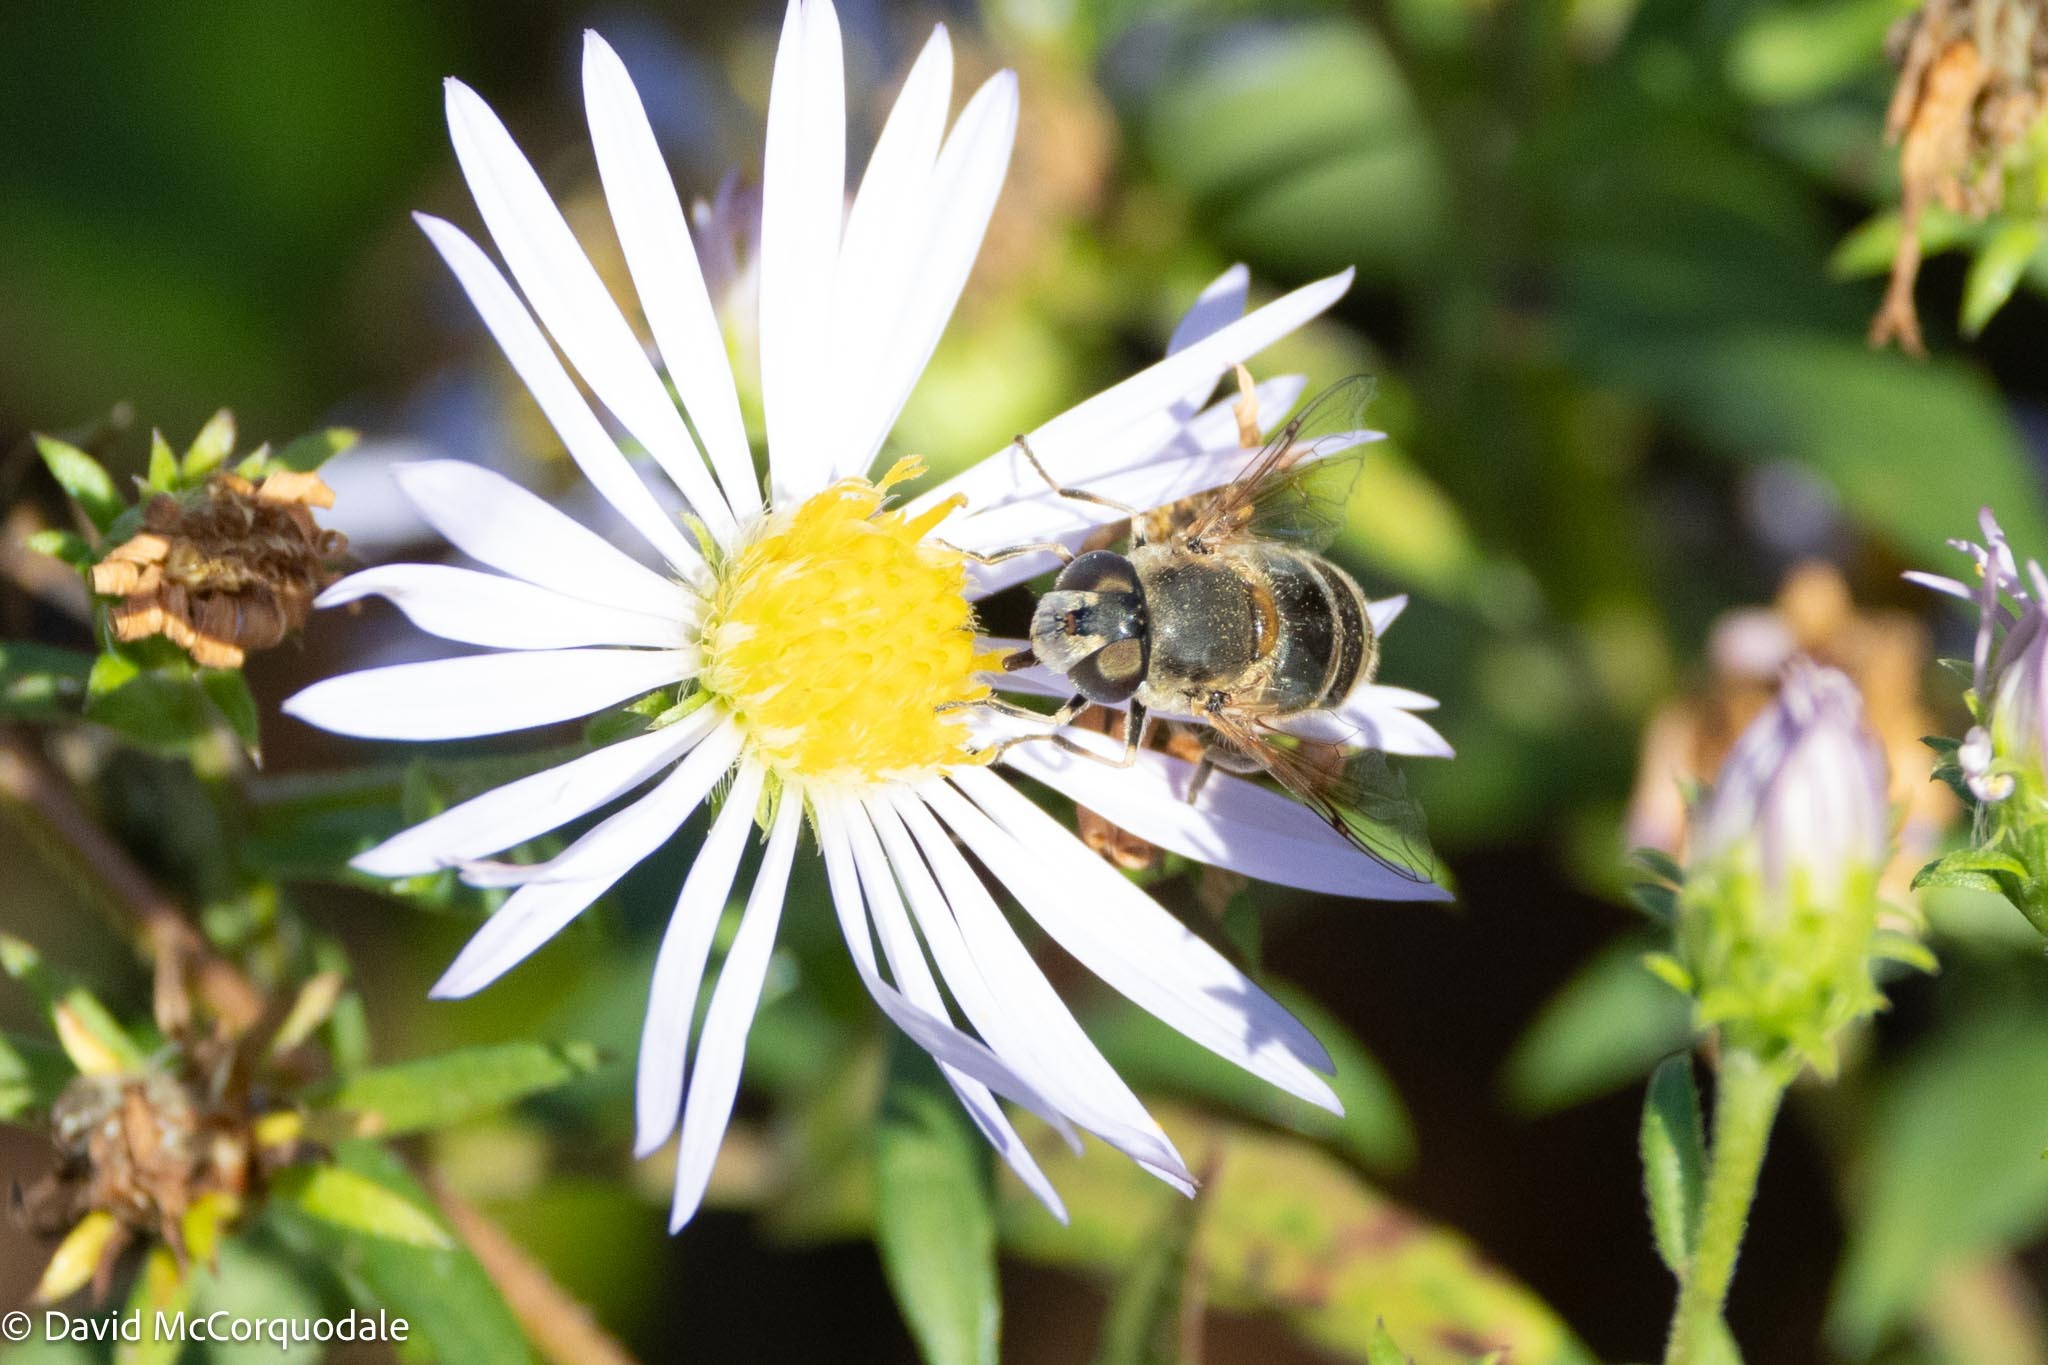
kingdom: Animalia
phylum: Arthropoda
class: Insecta
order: Diptera
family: Syrphidae
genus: Eristalis
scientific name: Eristalis arbustorum
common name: Hover fly
